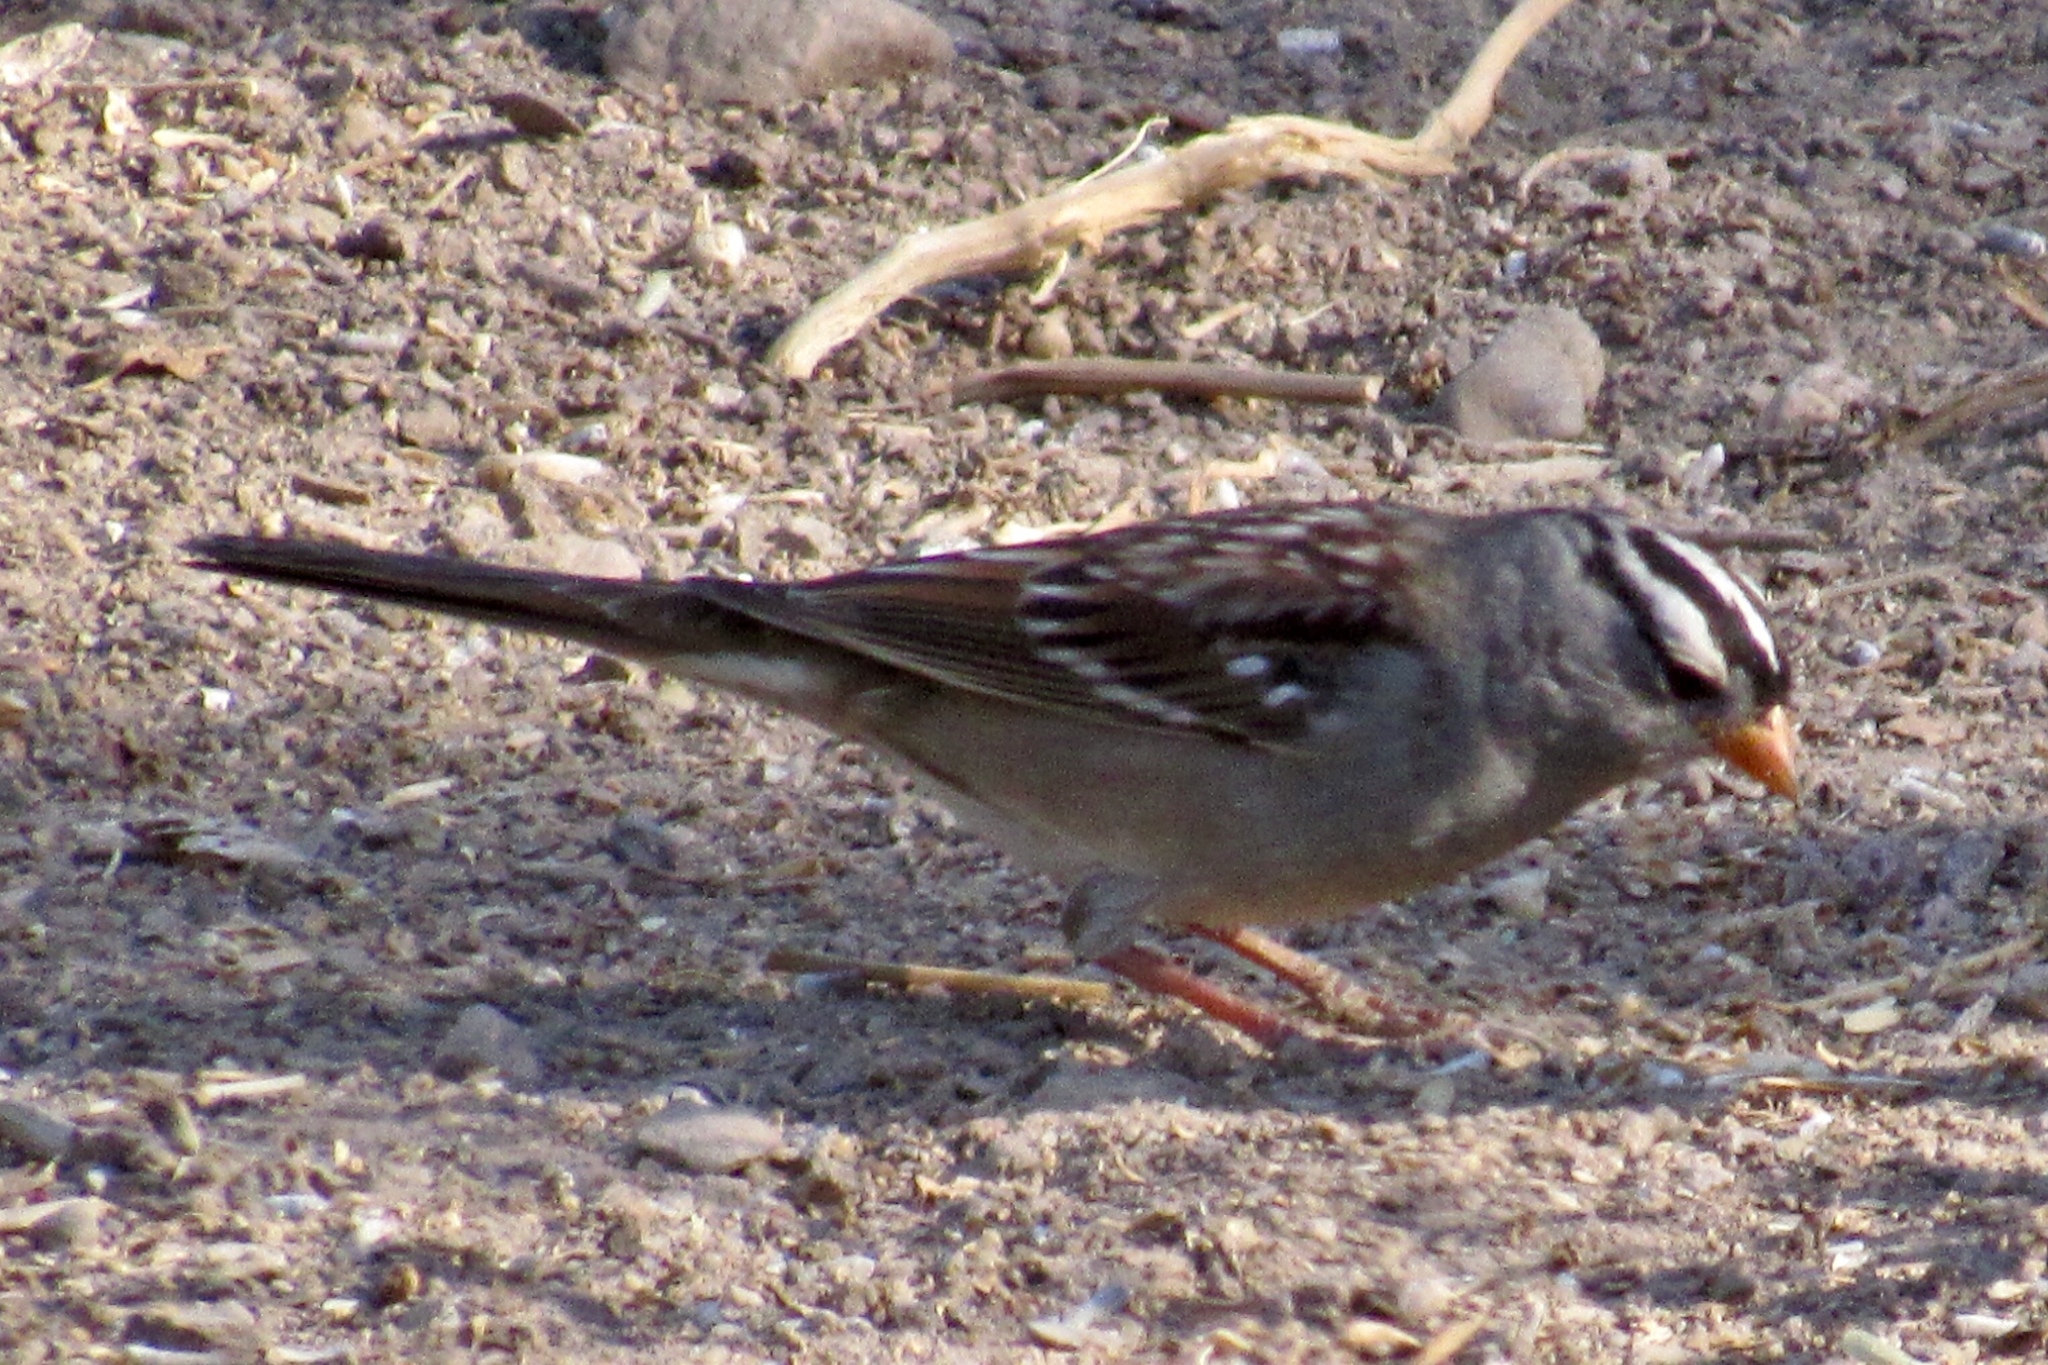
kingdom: Animalia
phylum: Chordata
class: Aves
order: Passeriformes
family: Passerellidae
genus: Zonotrichia
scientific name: Zonotrichia leucophrys
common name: White-crowned sparrow
